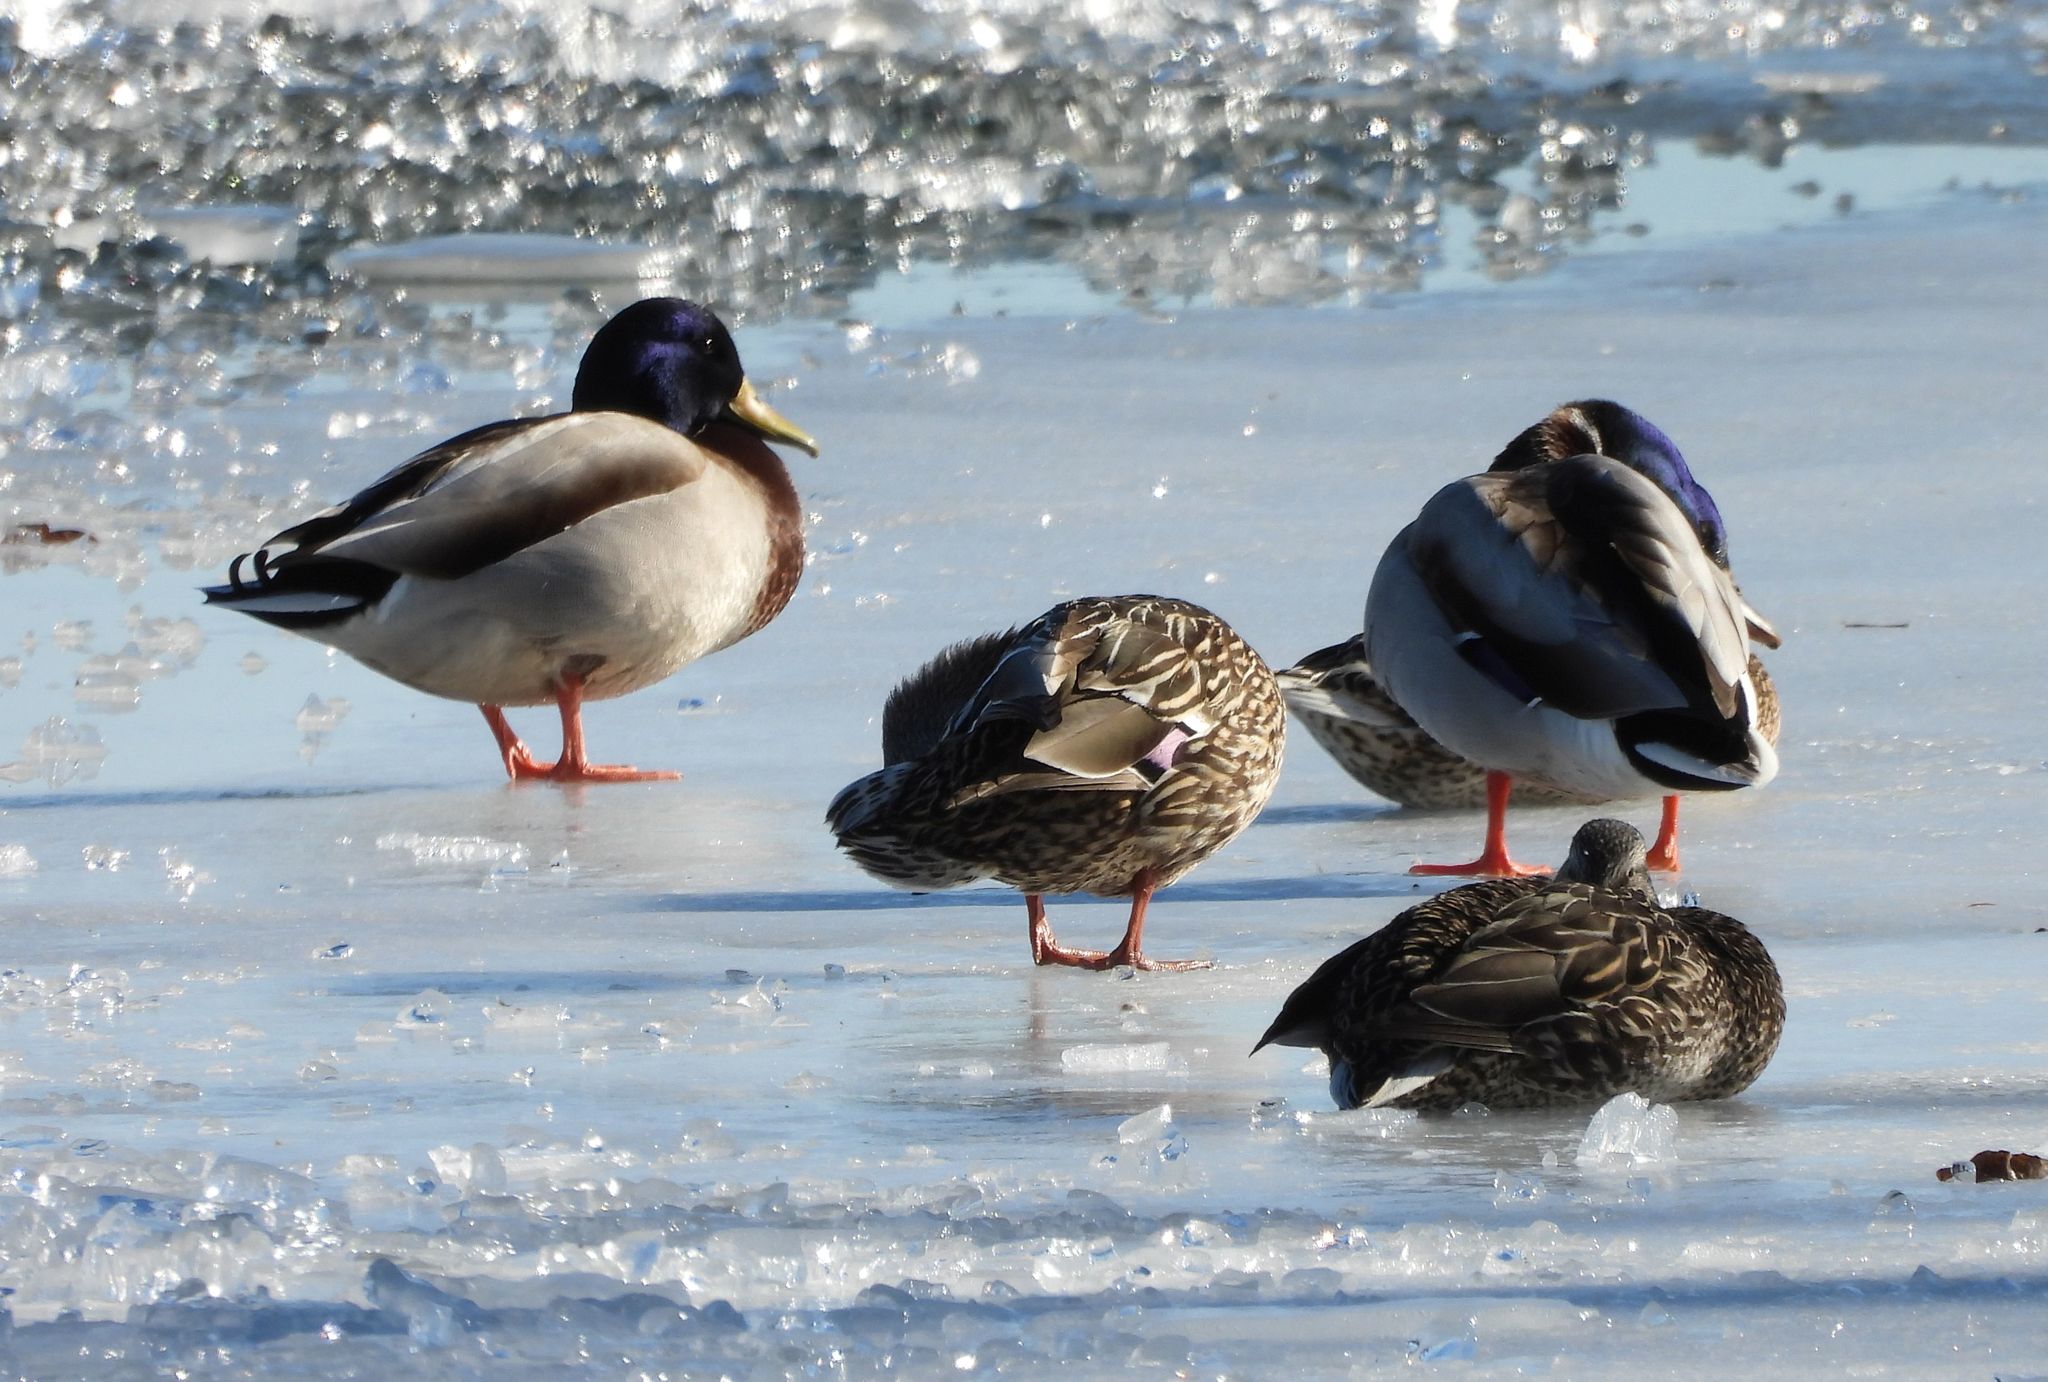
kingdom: Animalia
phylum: Chordata
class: Aves
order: Anseriformes
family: Anatidae
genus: Anas
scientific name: Anas platyrhynchos
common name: Mallard
